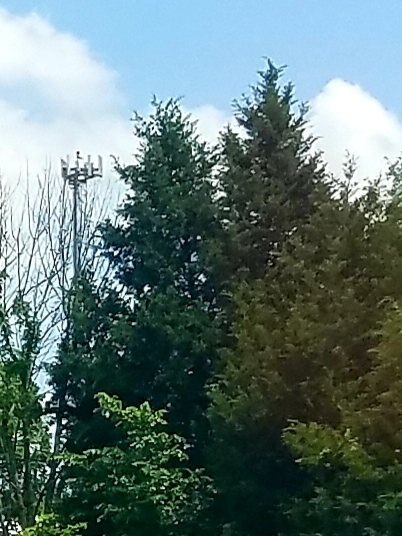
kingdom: Plantae
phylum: Tracheophyta
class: Pinopsida
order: Pinales
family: Cupressaceae
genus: Juniperus
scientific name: Juniperus virginiana
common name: Red juniper
